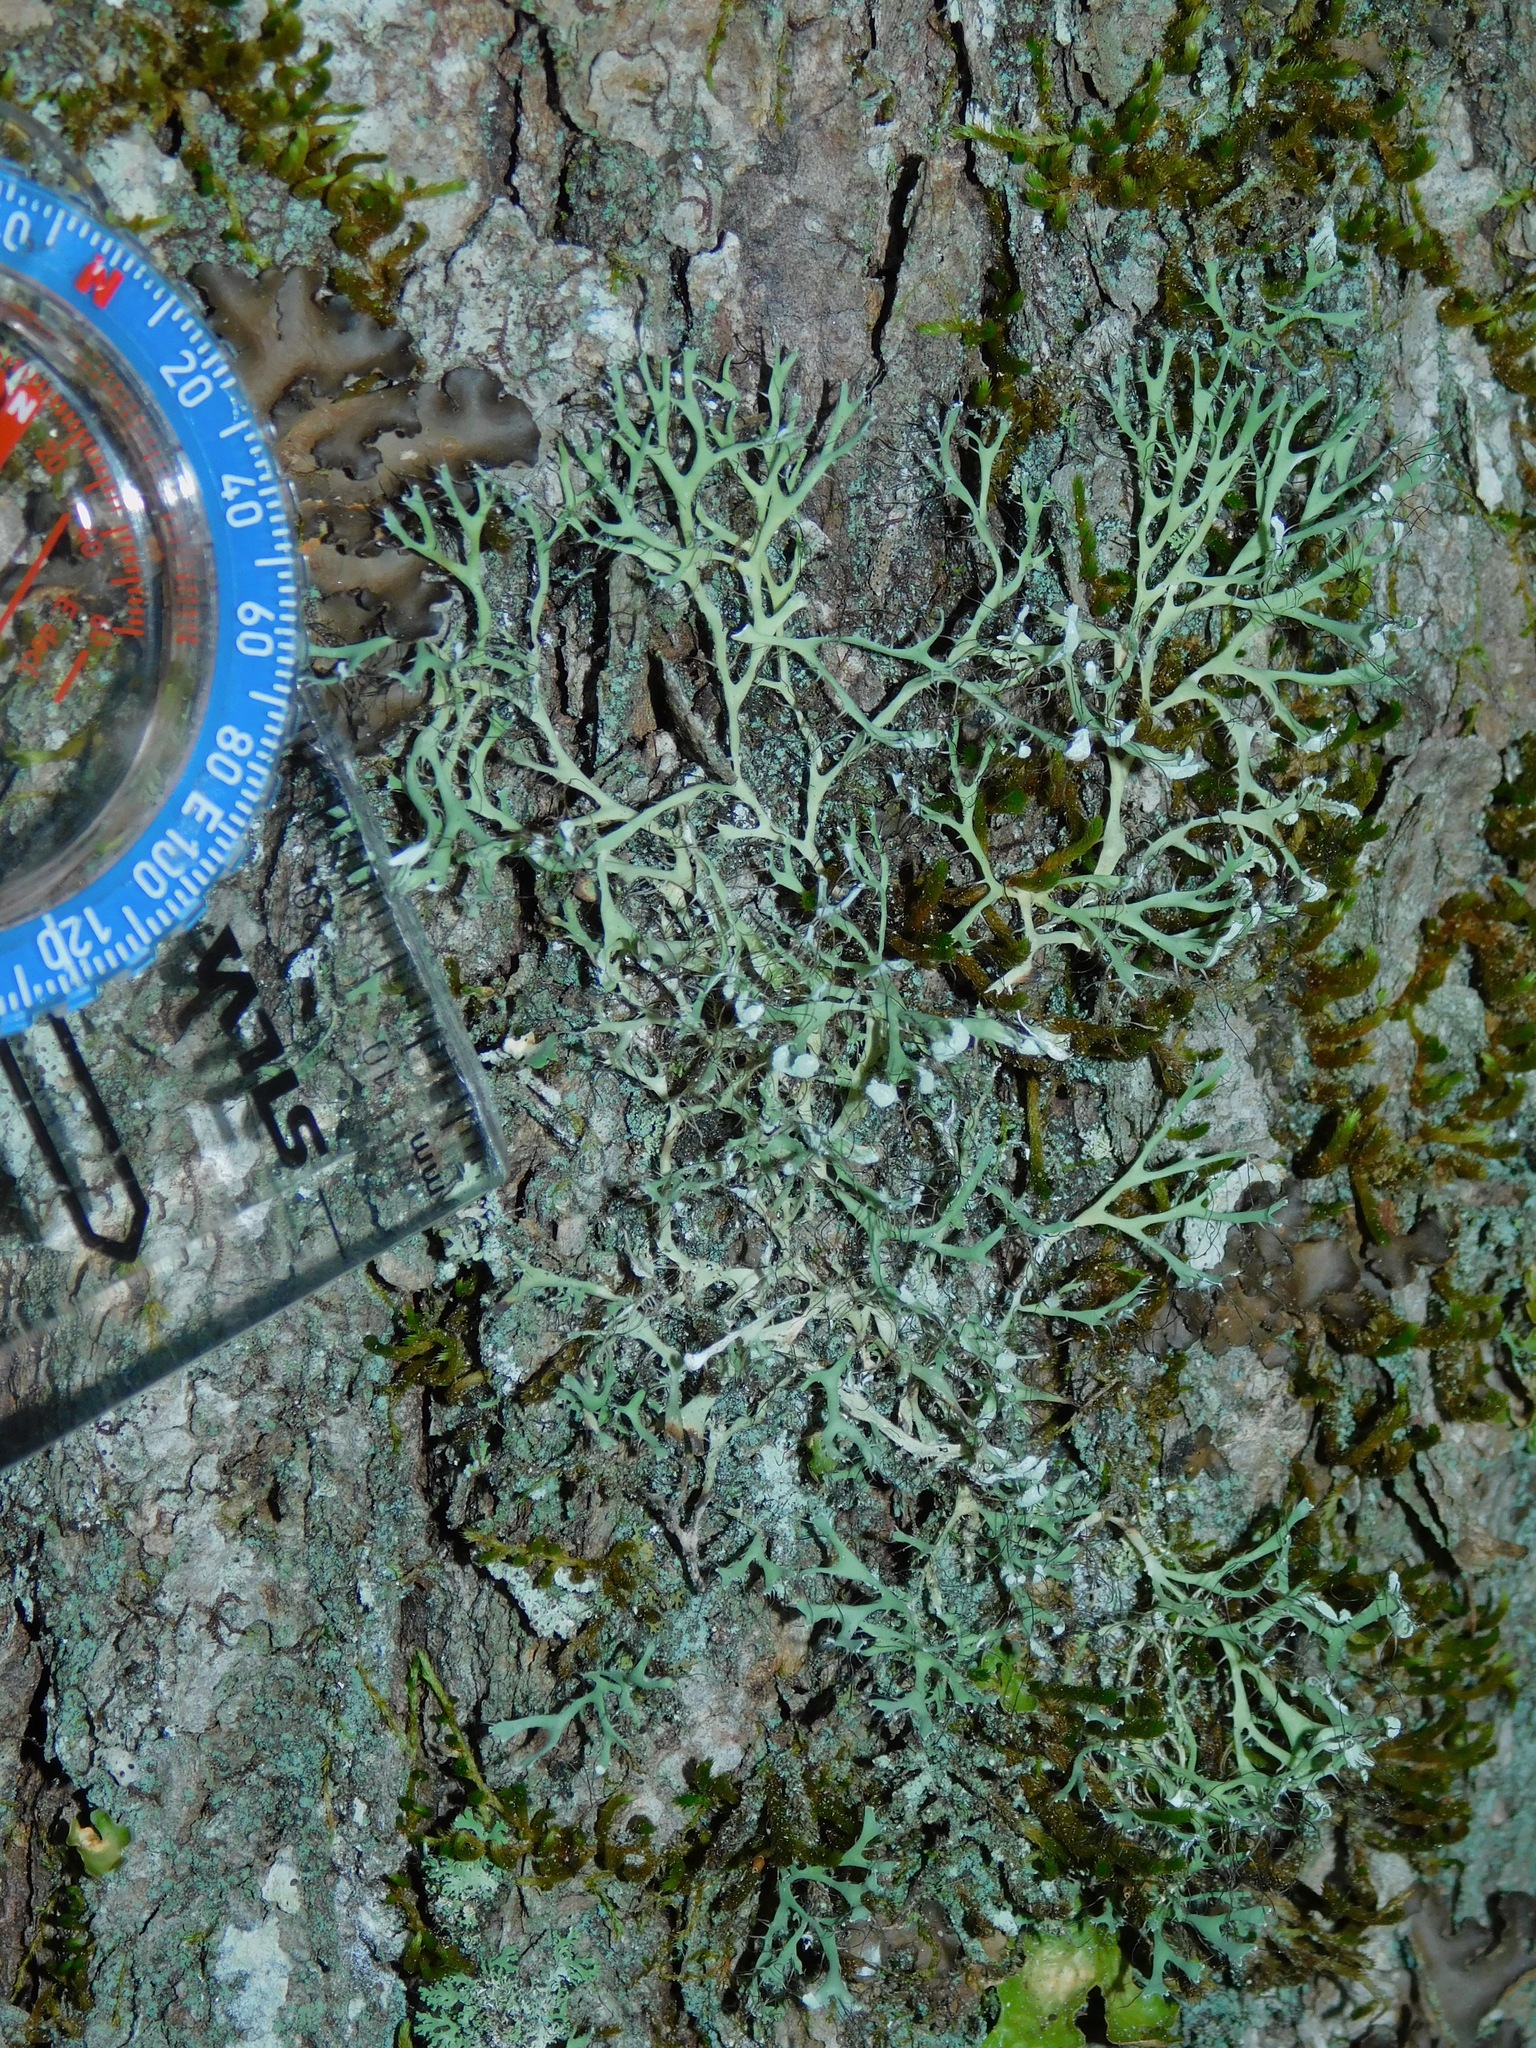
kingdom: Fungi
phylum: Ascomycota
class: Lecanoromycetes
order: Caliciales
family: Physciaceae
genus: Leucodermia
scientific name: Leucodermia leucomelos
